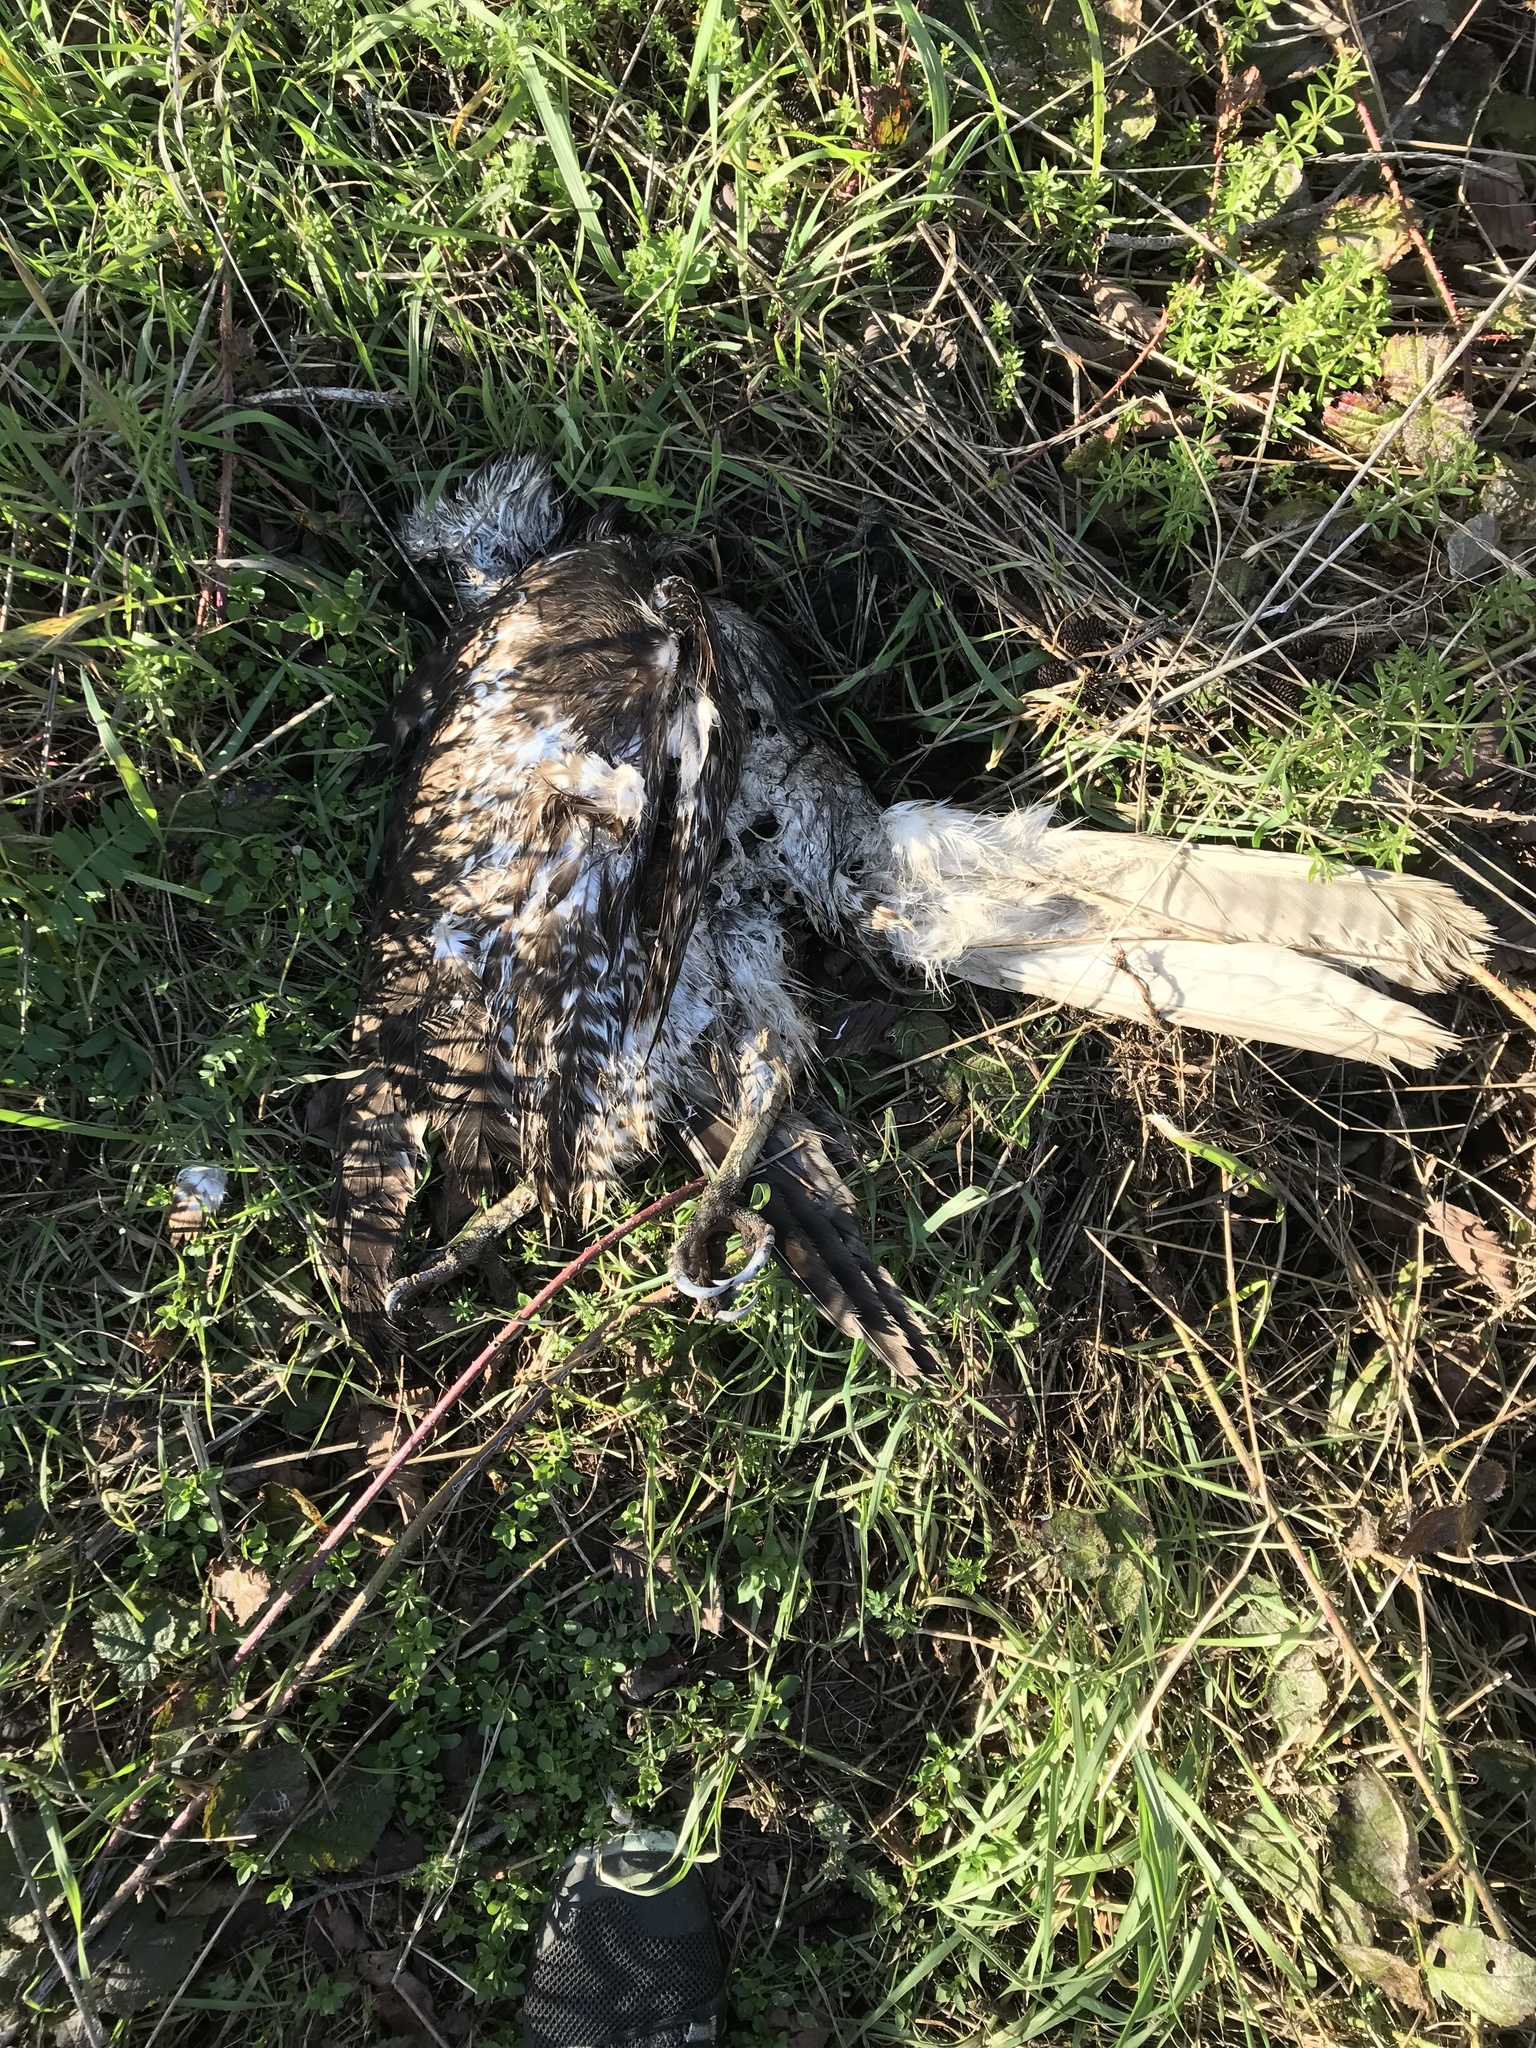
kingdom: Animalia
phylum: Chordata
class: Aves
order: Accipitriformes
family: Accipitridae
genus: Buteo
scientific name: Buteo jamaicensis
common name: Red-tailed hawk
